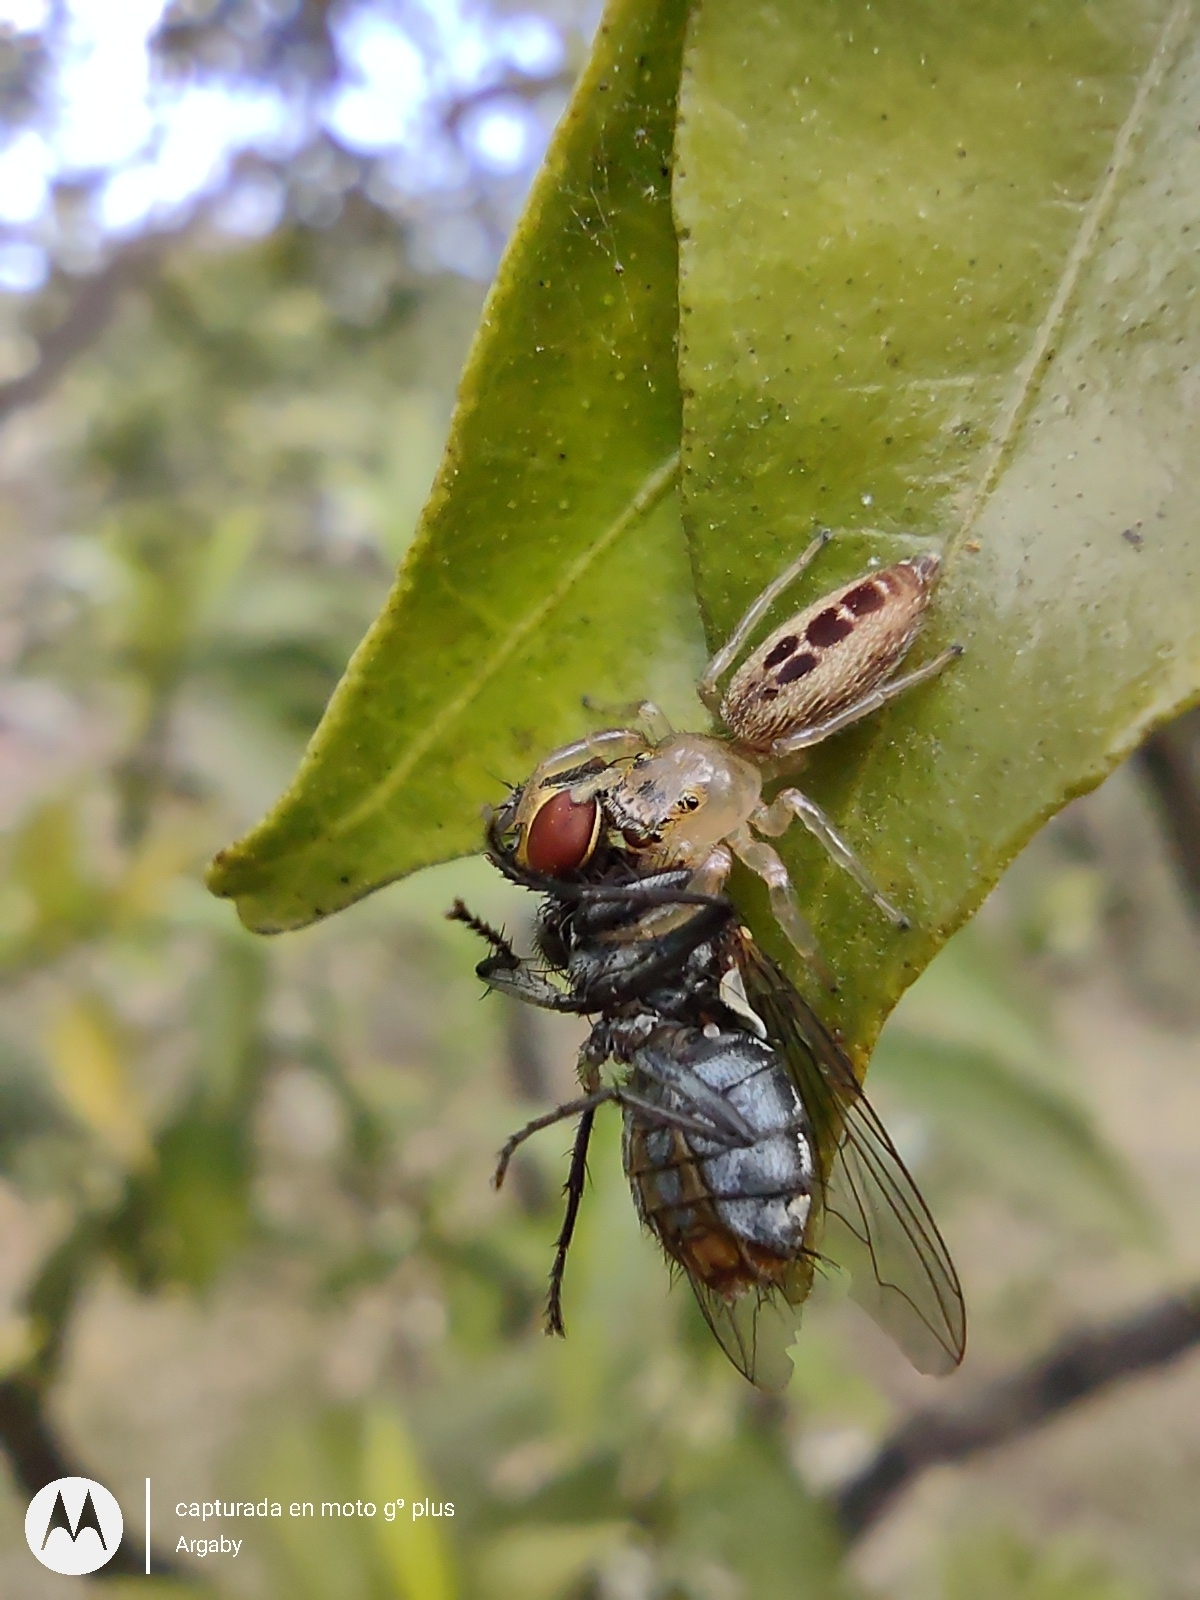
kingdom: Animalia
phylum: Arthropoda
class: Arachnida
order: Araneae
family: Salticidae
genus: Cotinusa
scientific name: Cotinusa vittata
